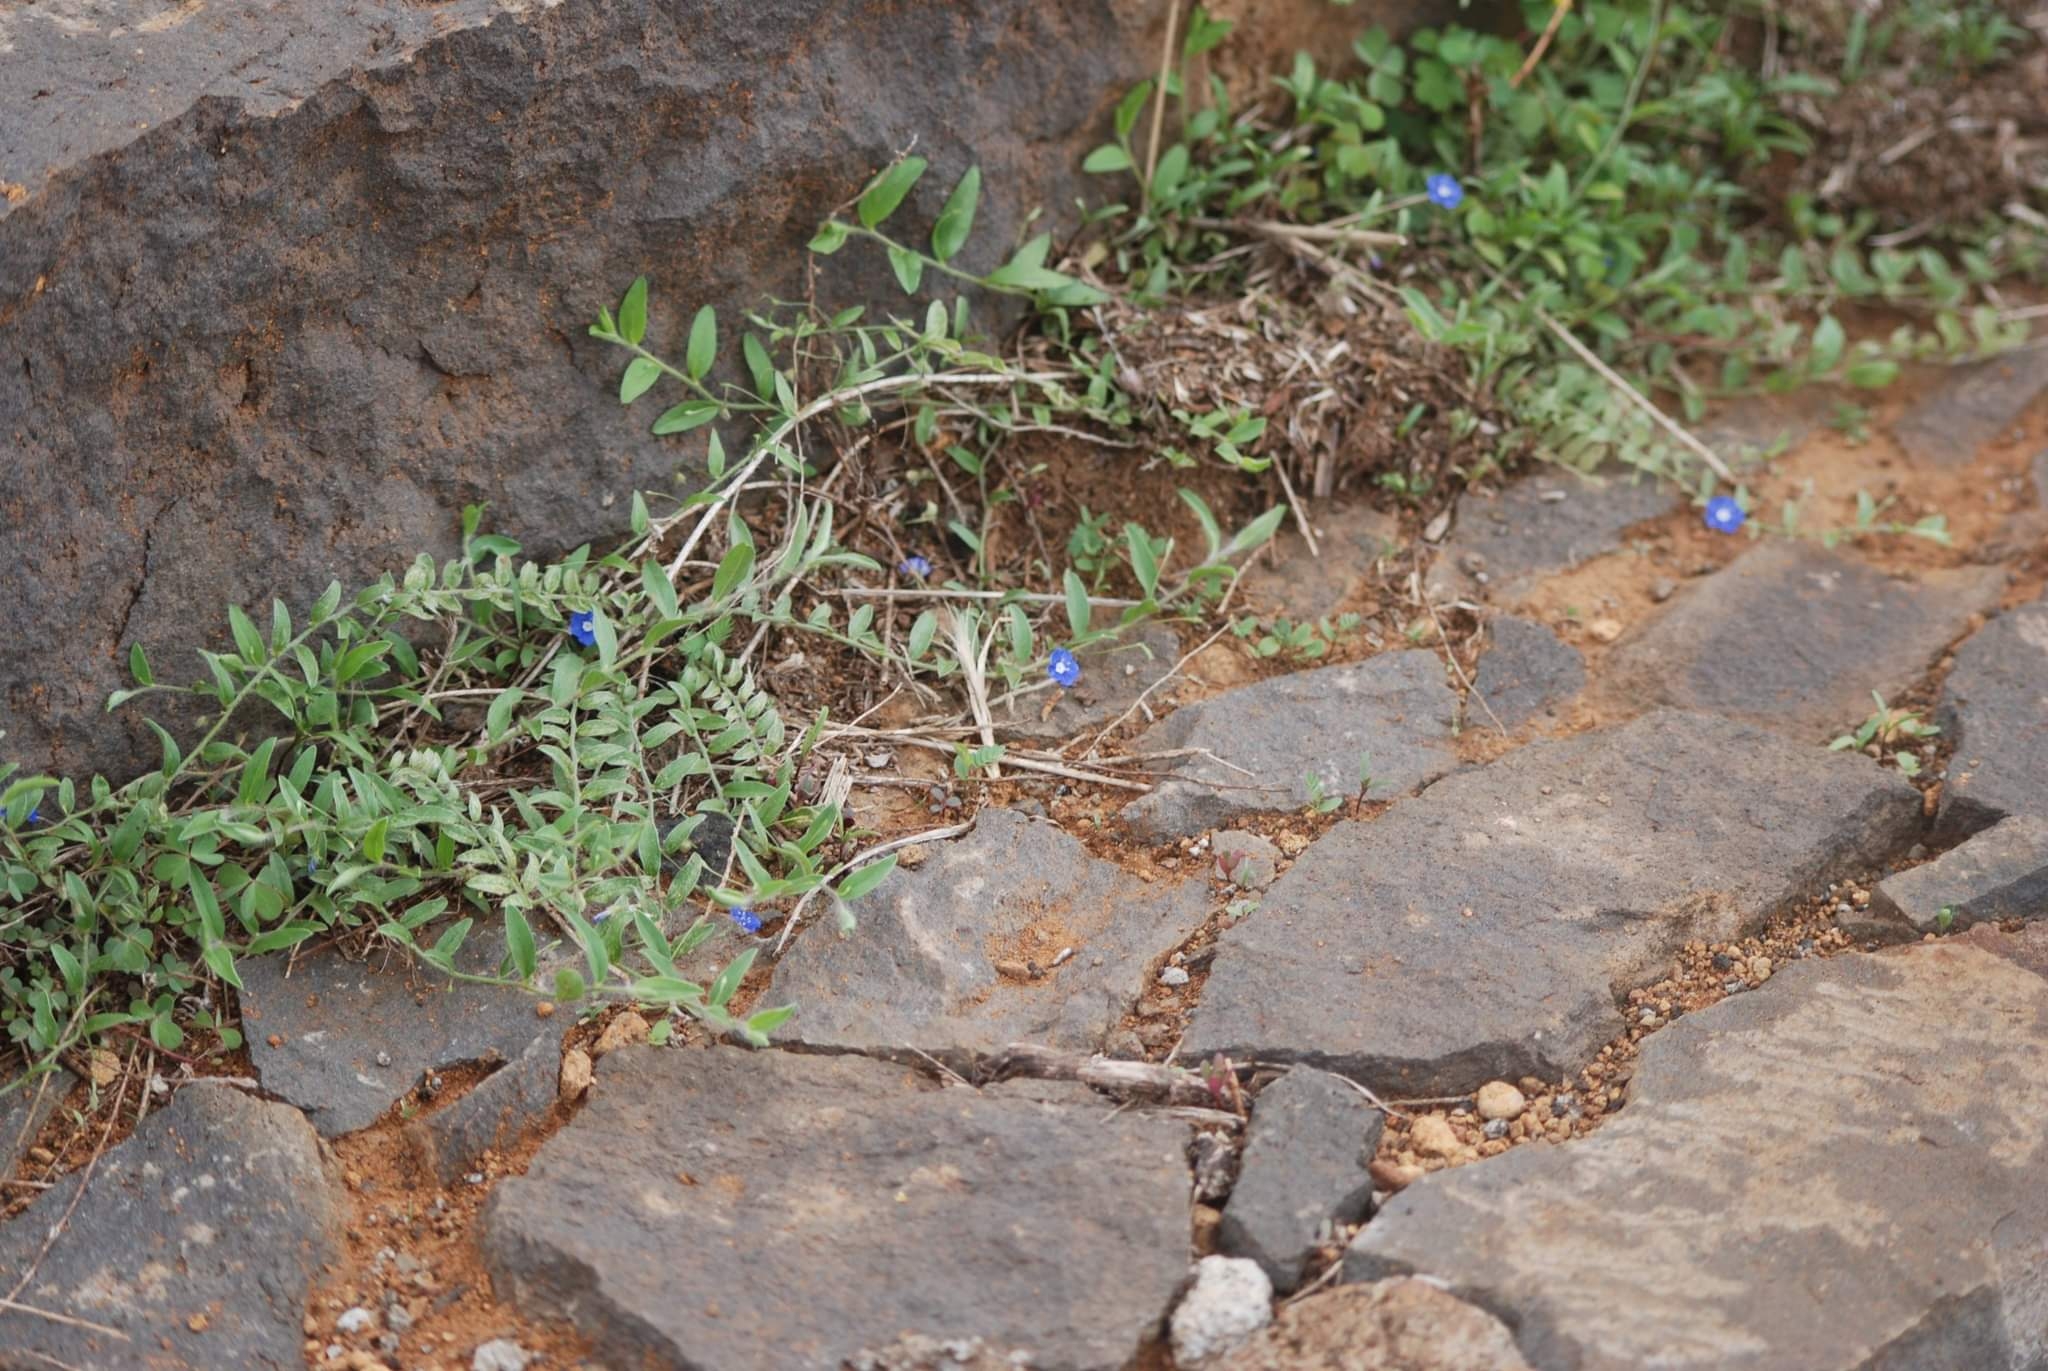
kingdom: Plantae
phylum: Tracheophyta
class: Magnoliopsida
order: Solanales
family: Convolvulaceae
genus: Evolvulus
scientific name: Evolvulus alsinoides
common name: Slender dwarf morning-glory
